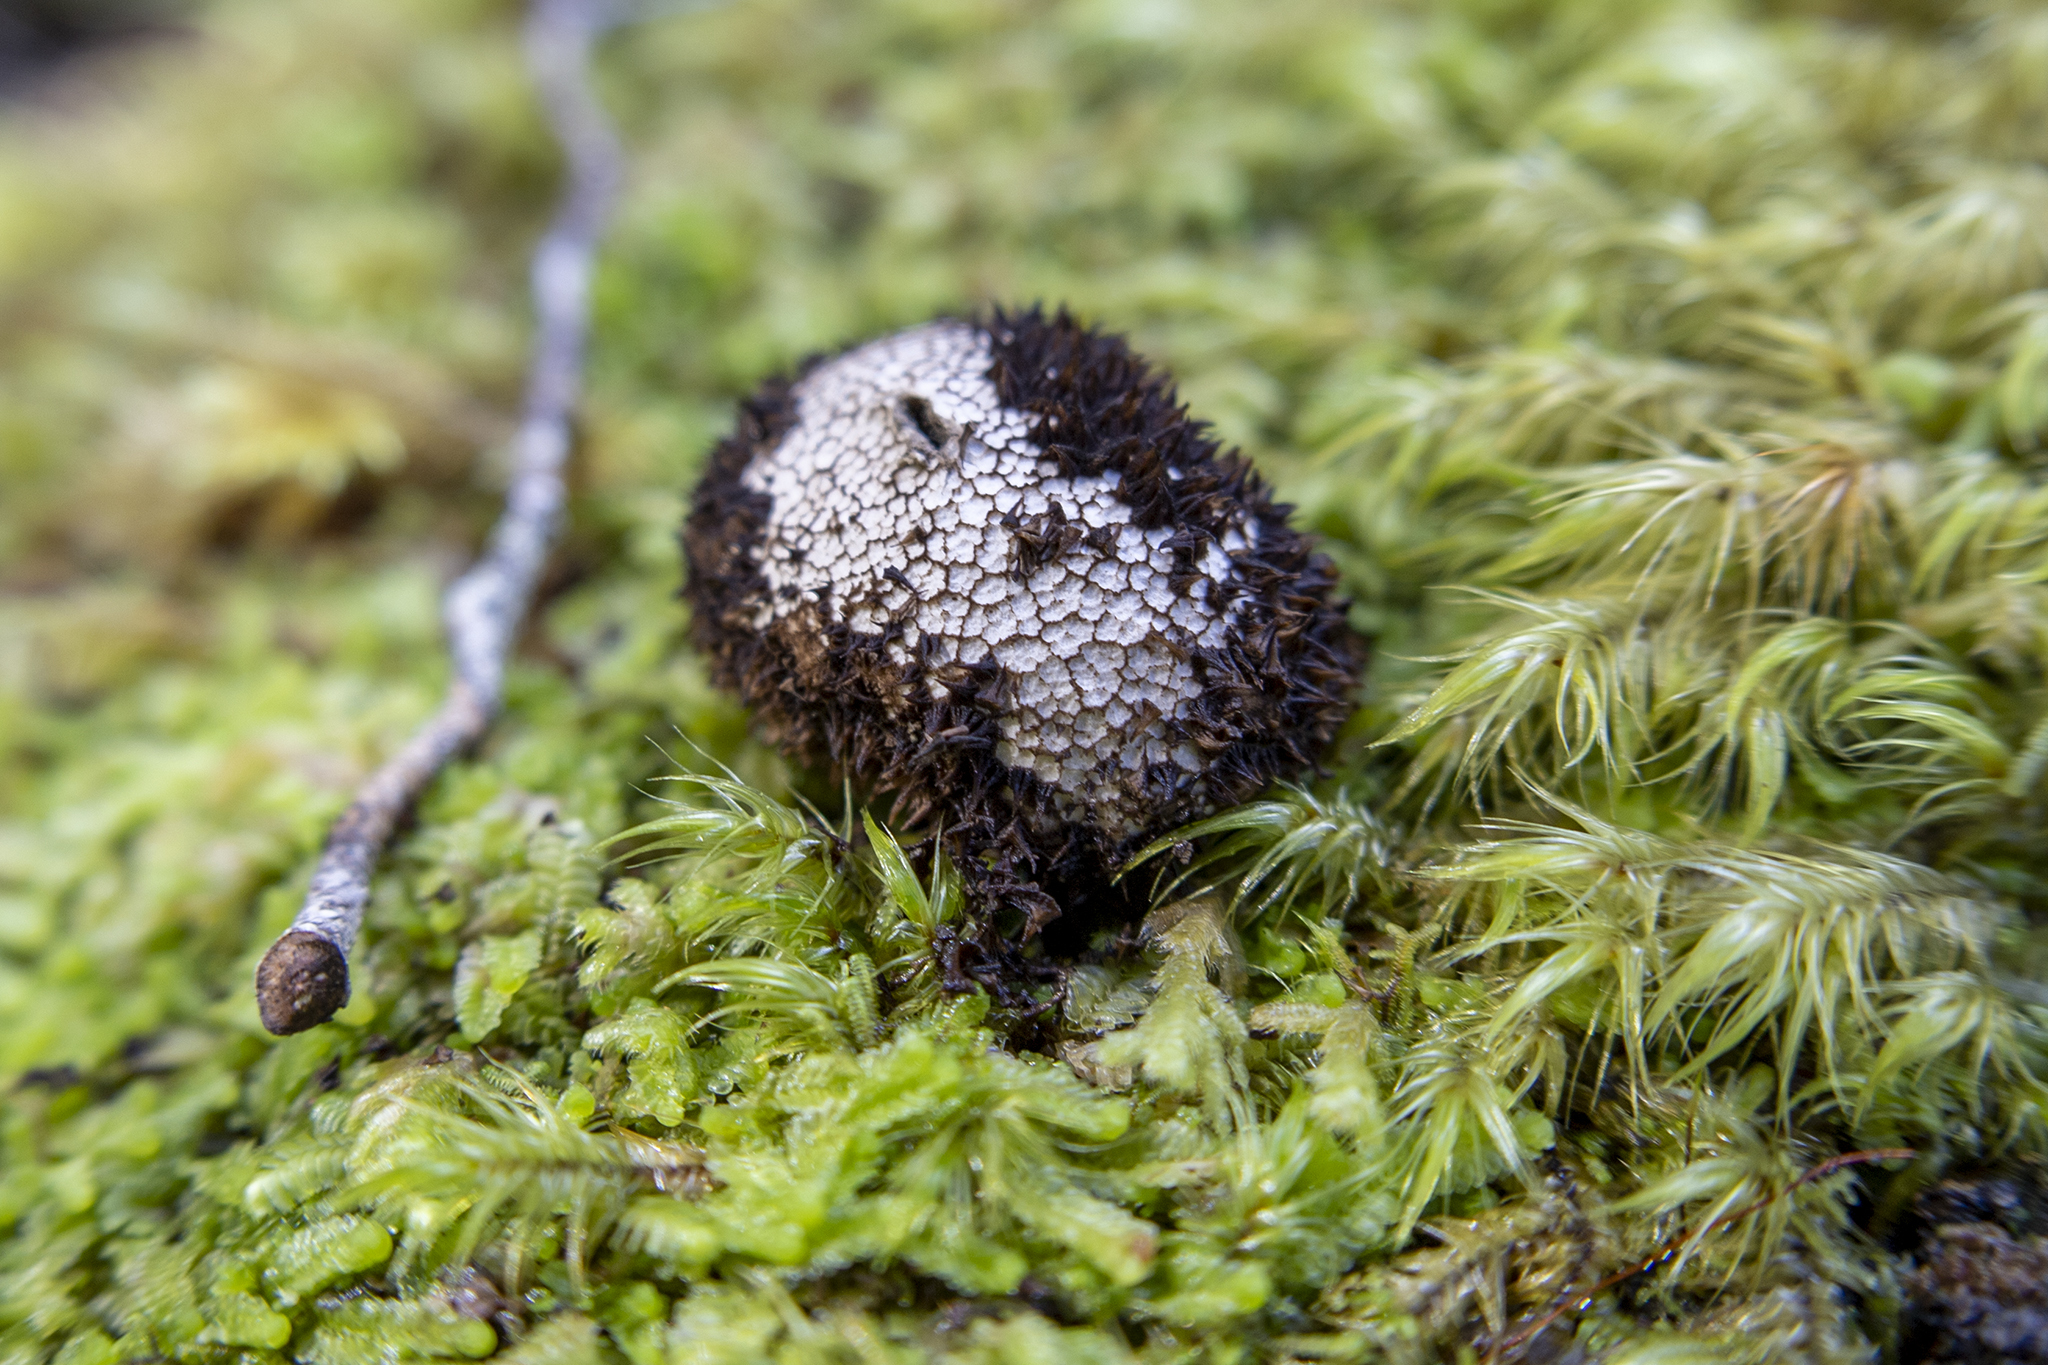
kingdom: Fungi
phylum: Basidiomycota
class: Agaricomycetes
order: Agaricales
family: Lycoperdaceae
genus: Lycoperdon
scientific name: Lycoperdon compactum
